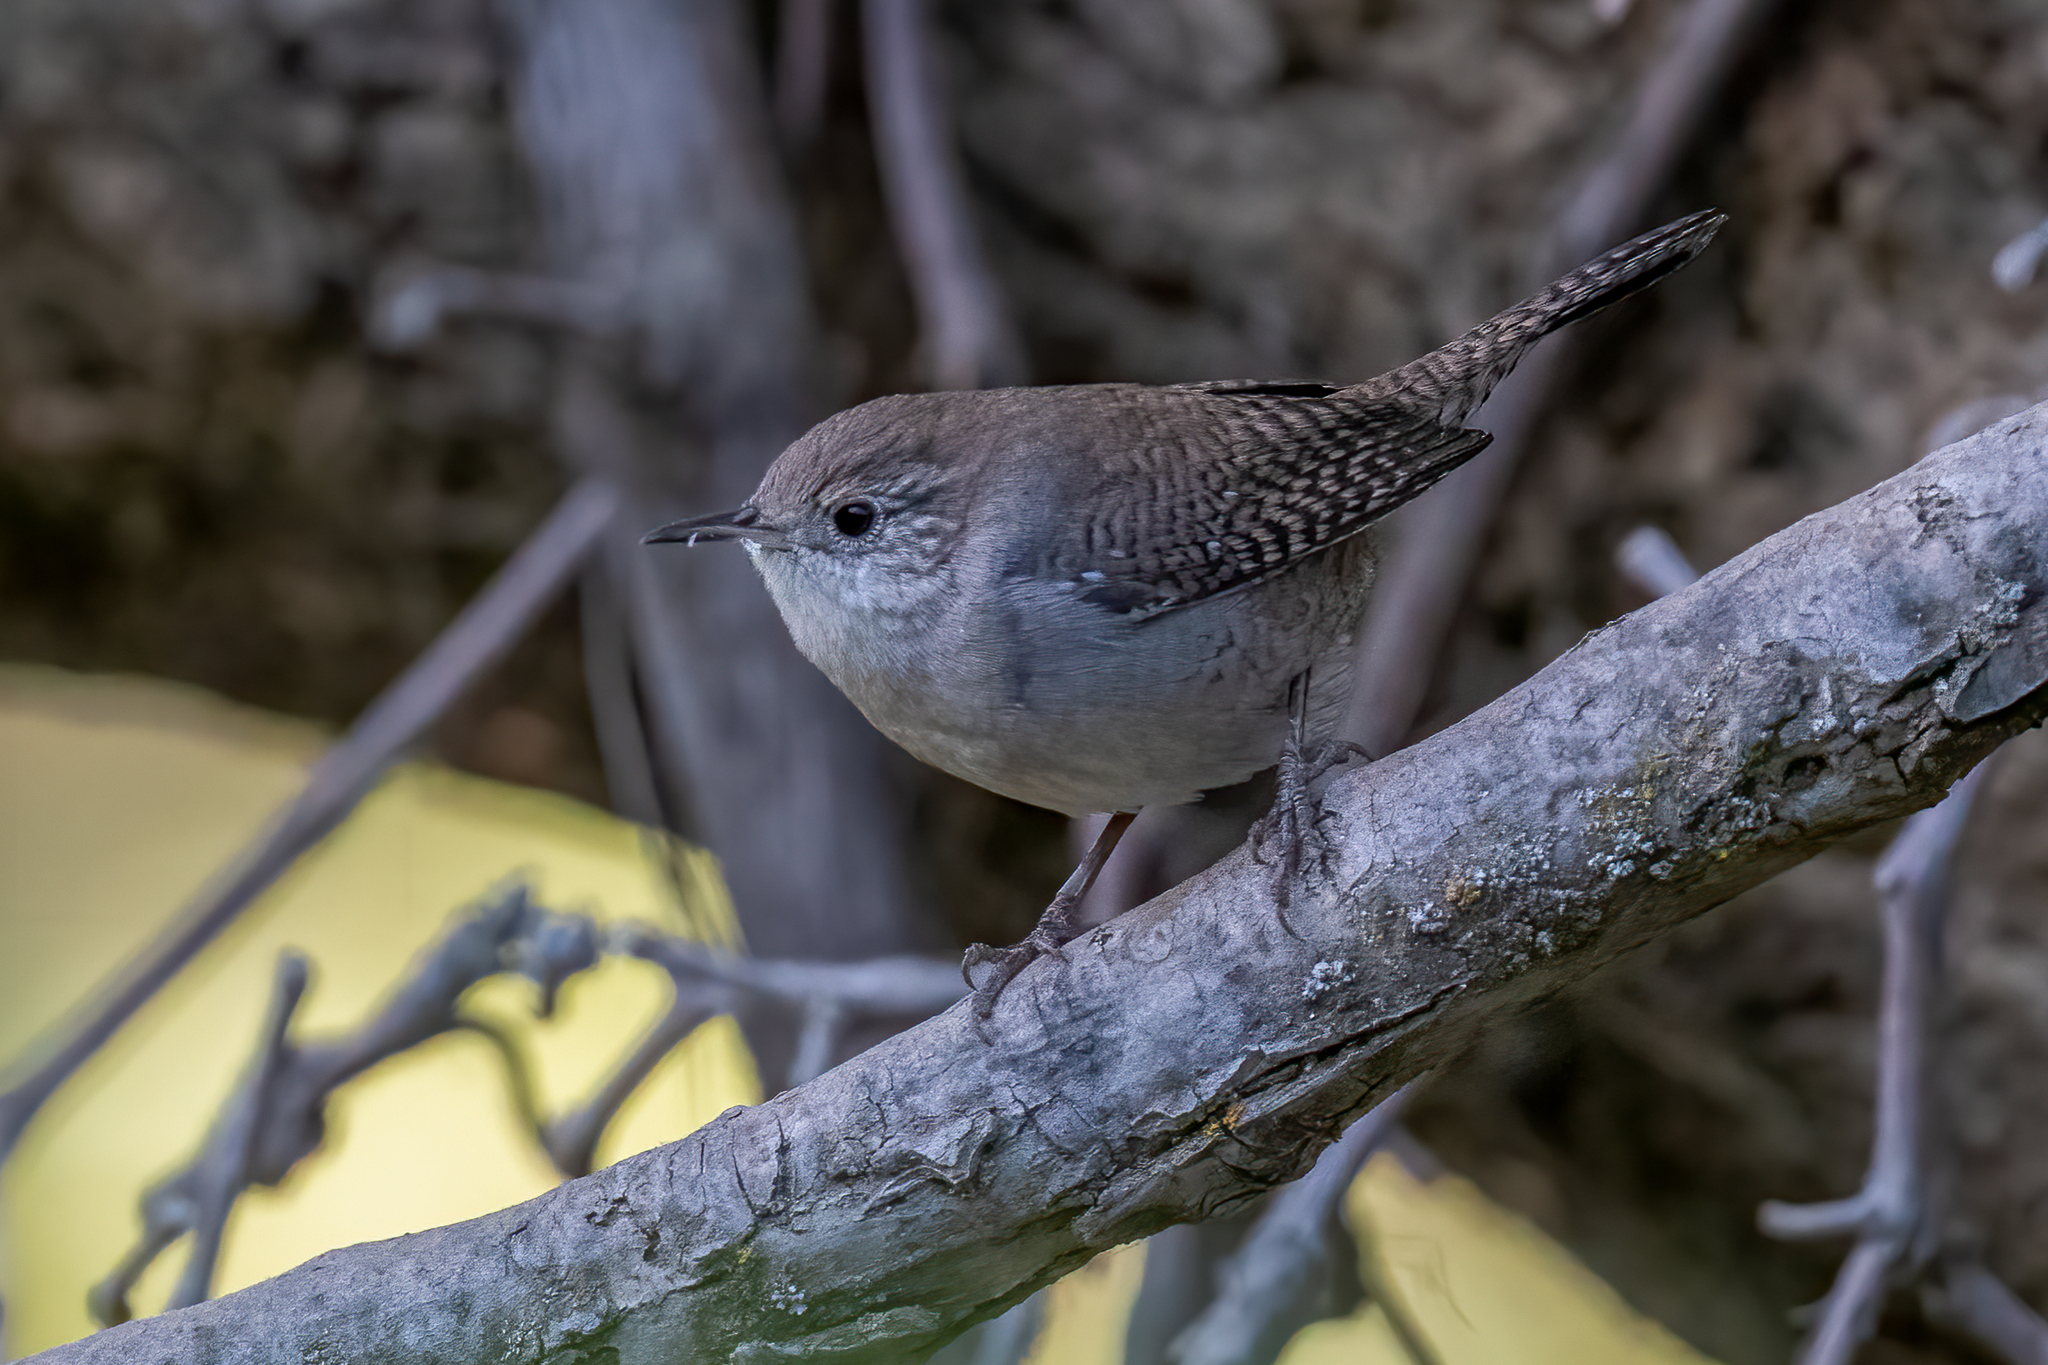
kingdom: Animalia
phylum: Chordata
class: Aves
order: Passeriformes
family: Troglodytidae
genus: Troglodytes
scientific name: Troglodytes aedon
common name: House wren
